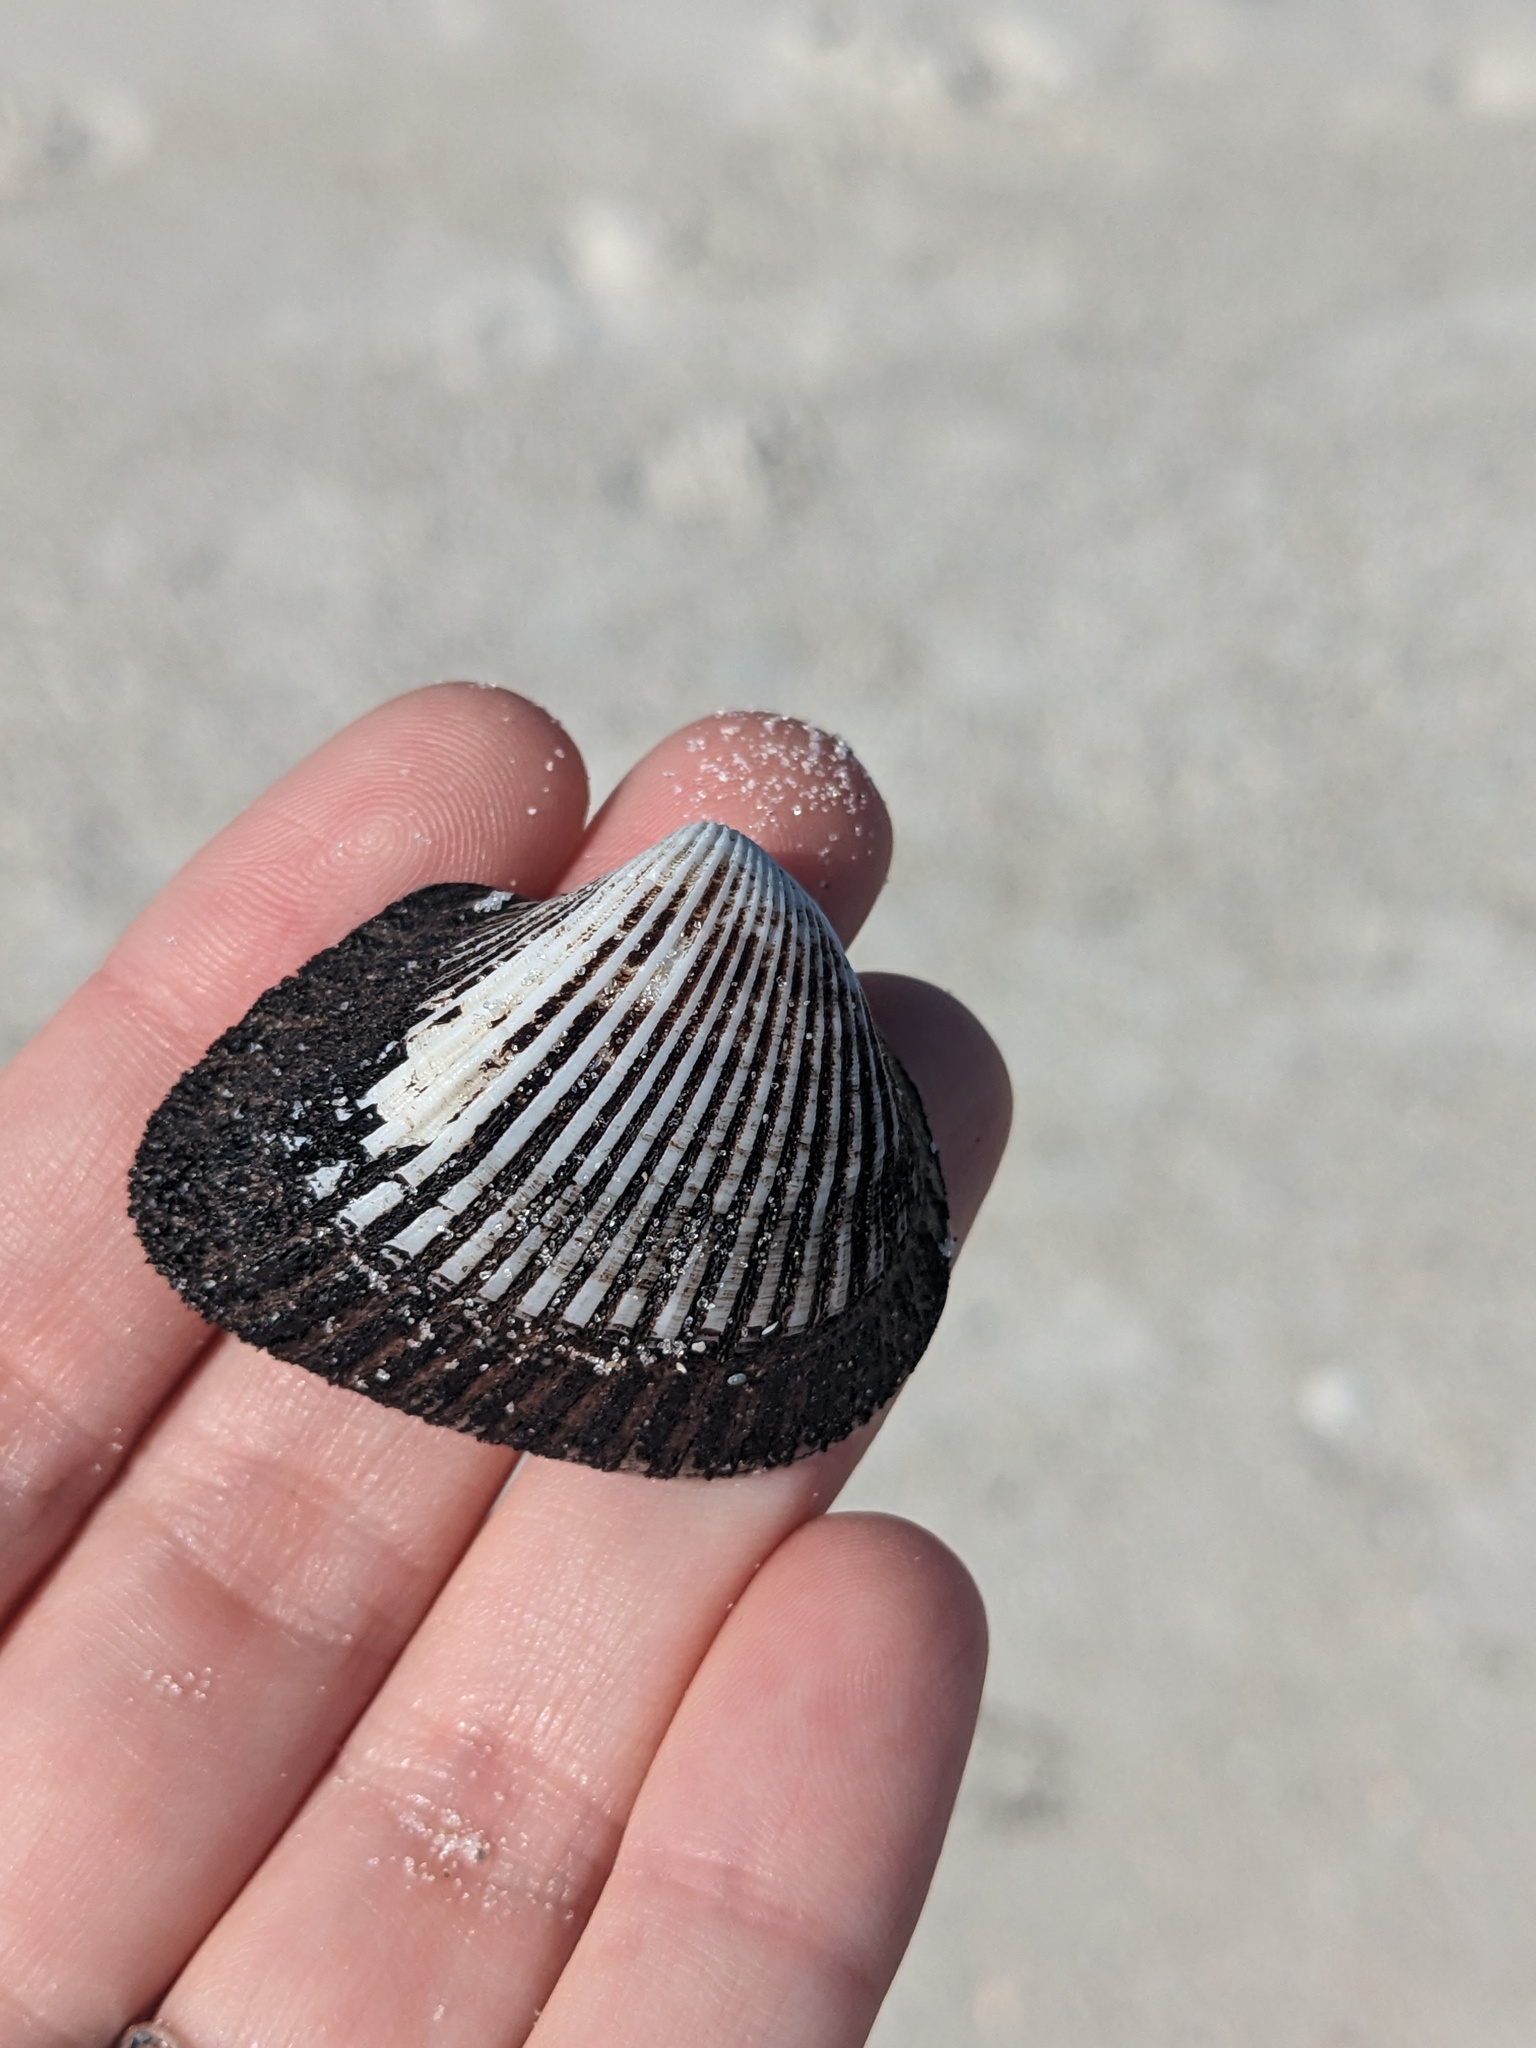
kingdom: Animalia
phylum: Mollusca
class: Bivalvia
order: Arcida
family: Noetiidae
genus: Noetia
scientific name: Noetia ponderosa
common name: Ponderous ark
